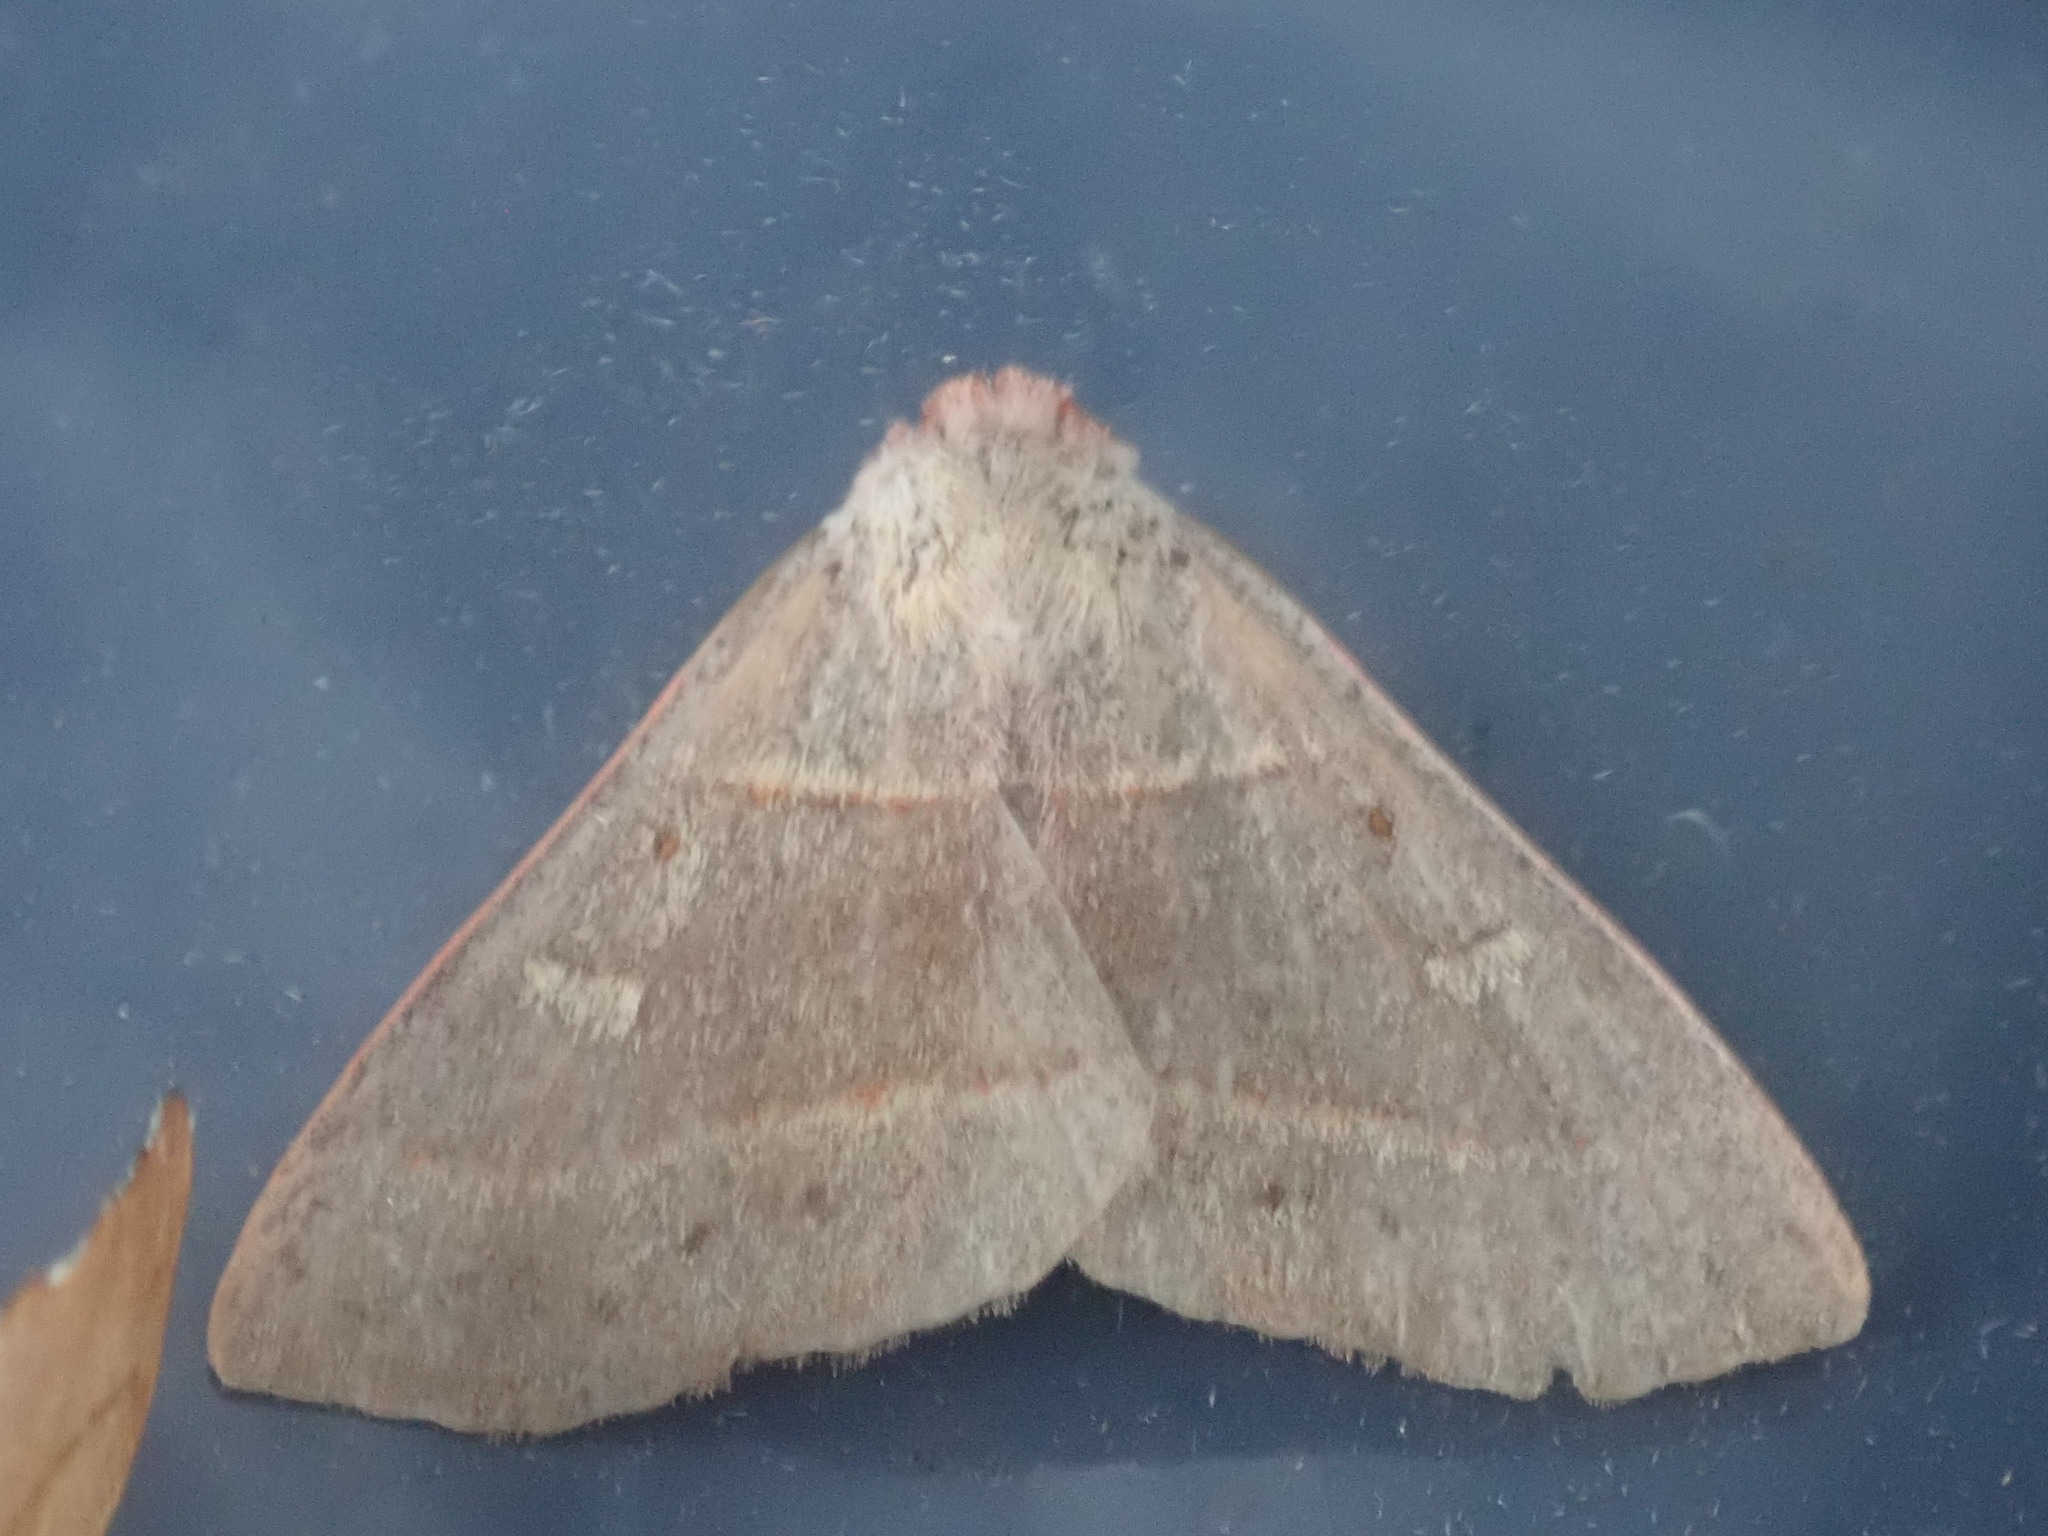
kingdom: Animalia
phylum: Arthropoda
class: Insecta
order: Lepidoptera
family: Erebidae
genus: Panopoda
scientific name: Panopoda rufimargo
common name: Red-lined panopoda moth
